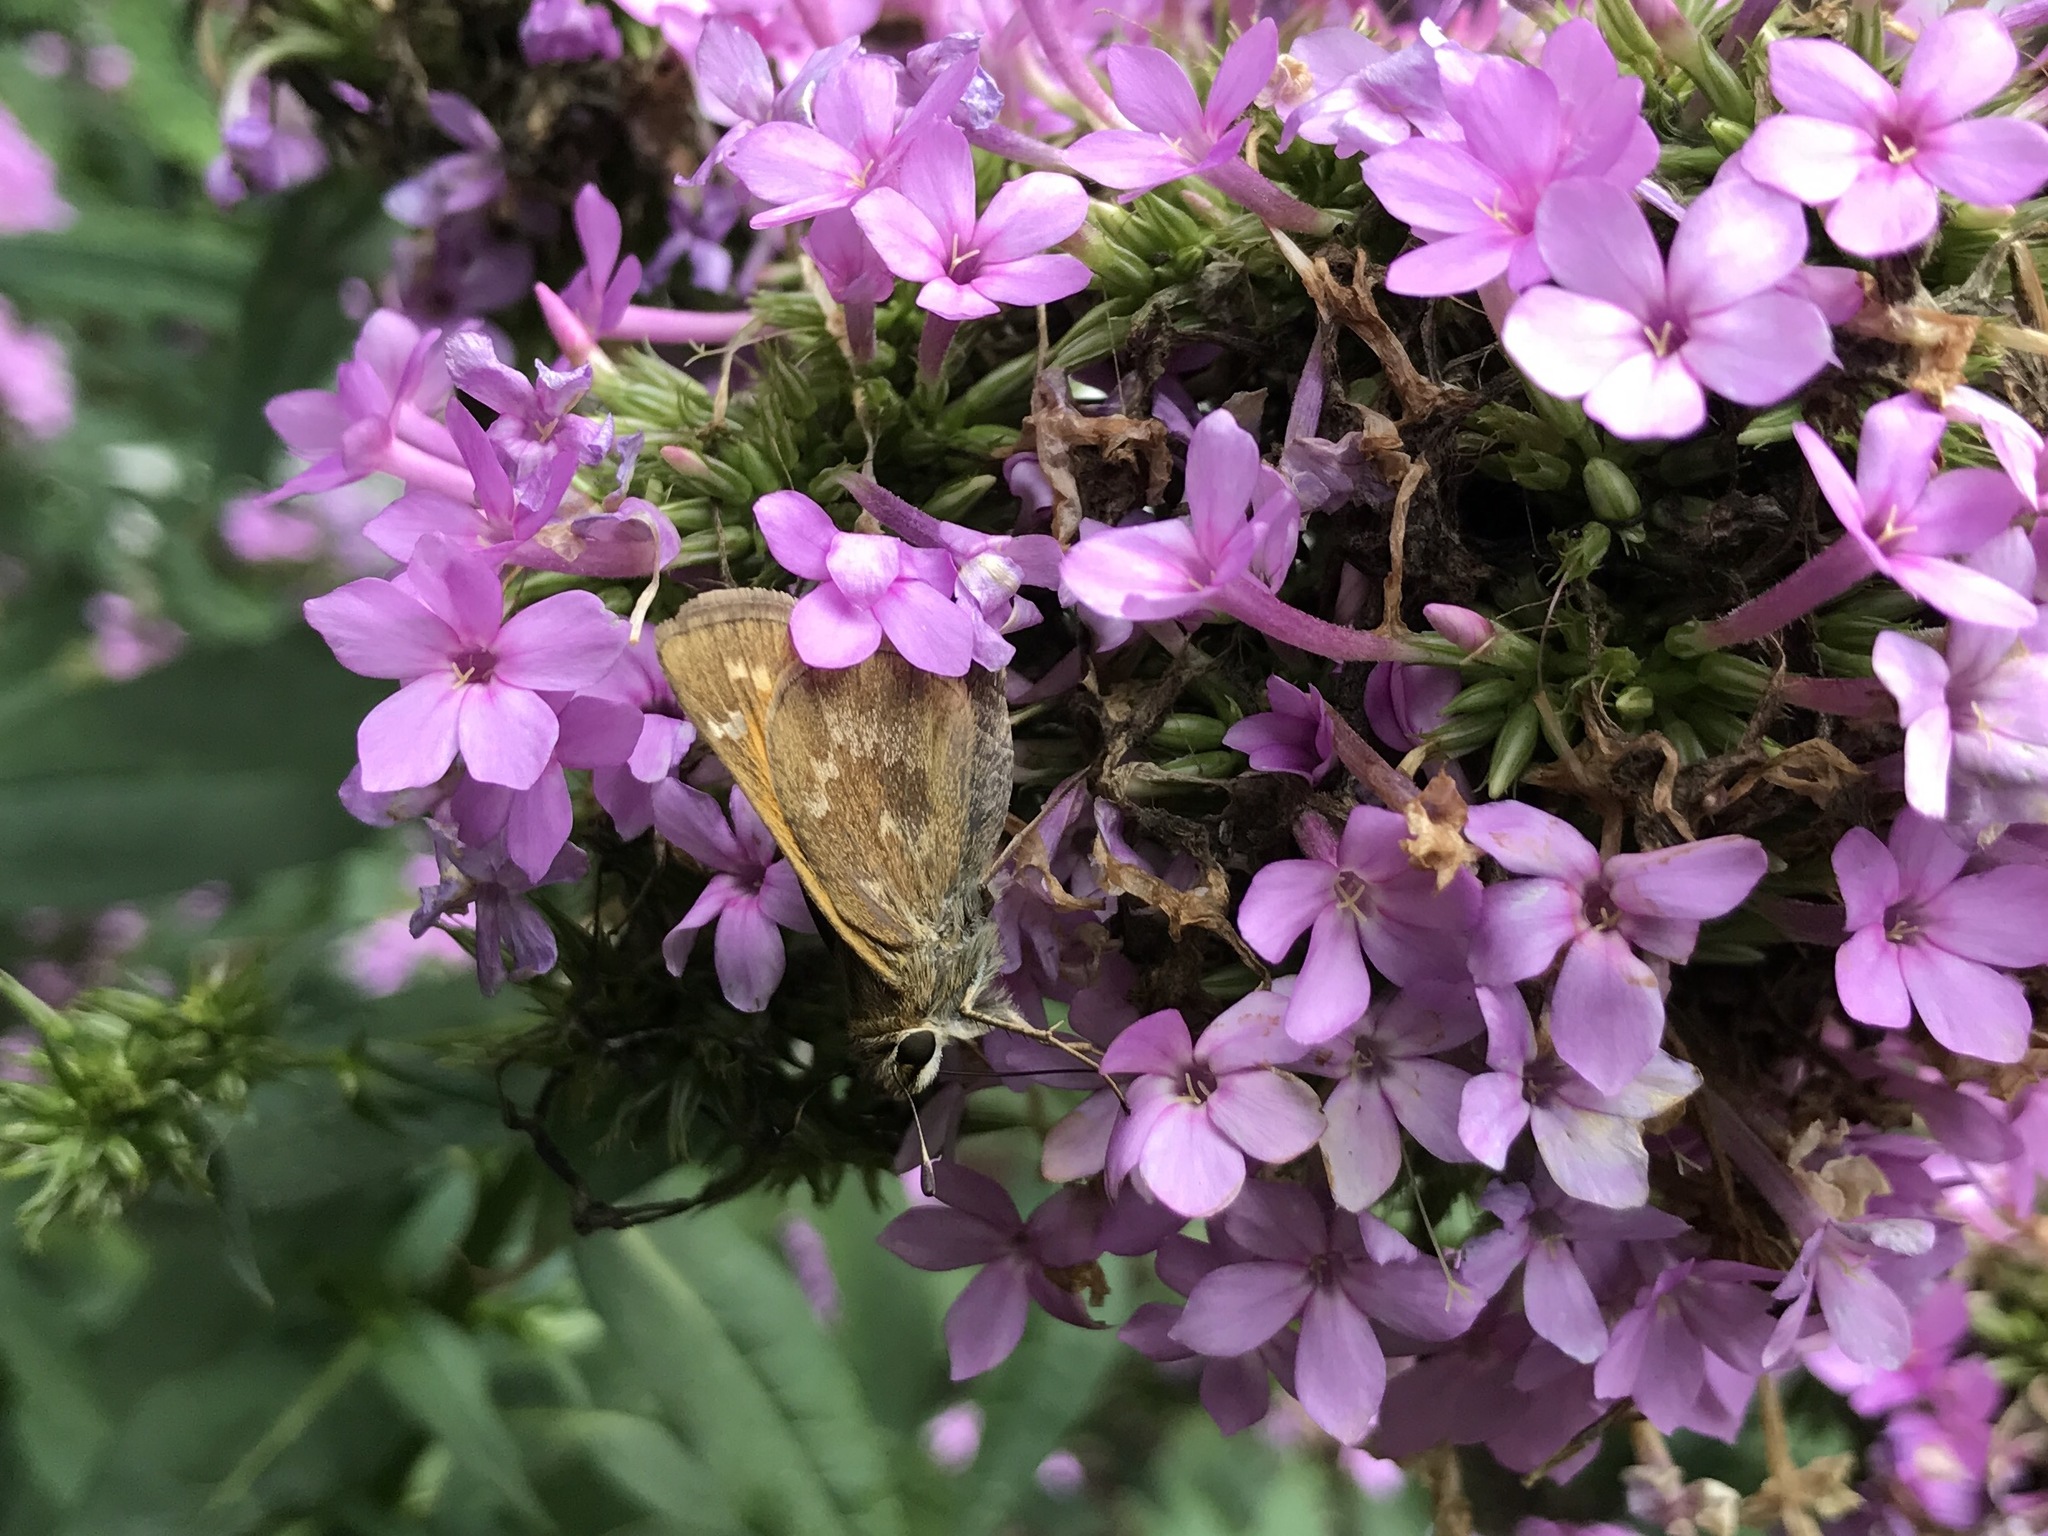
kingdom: Animalia
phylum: Arthropoda
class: Insecta
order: Lepidoptera
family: Hesperiidae
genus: Atalopedes
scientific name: Atalopedes
